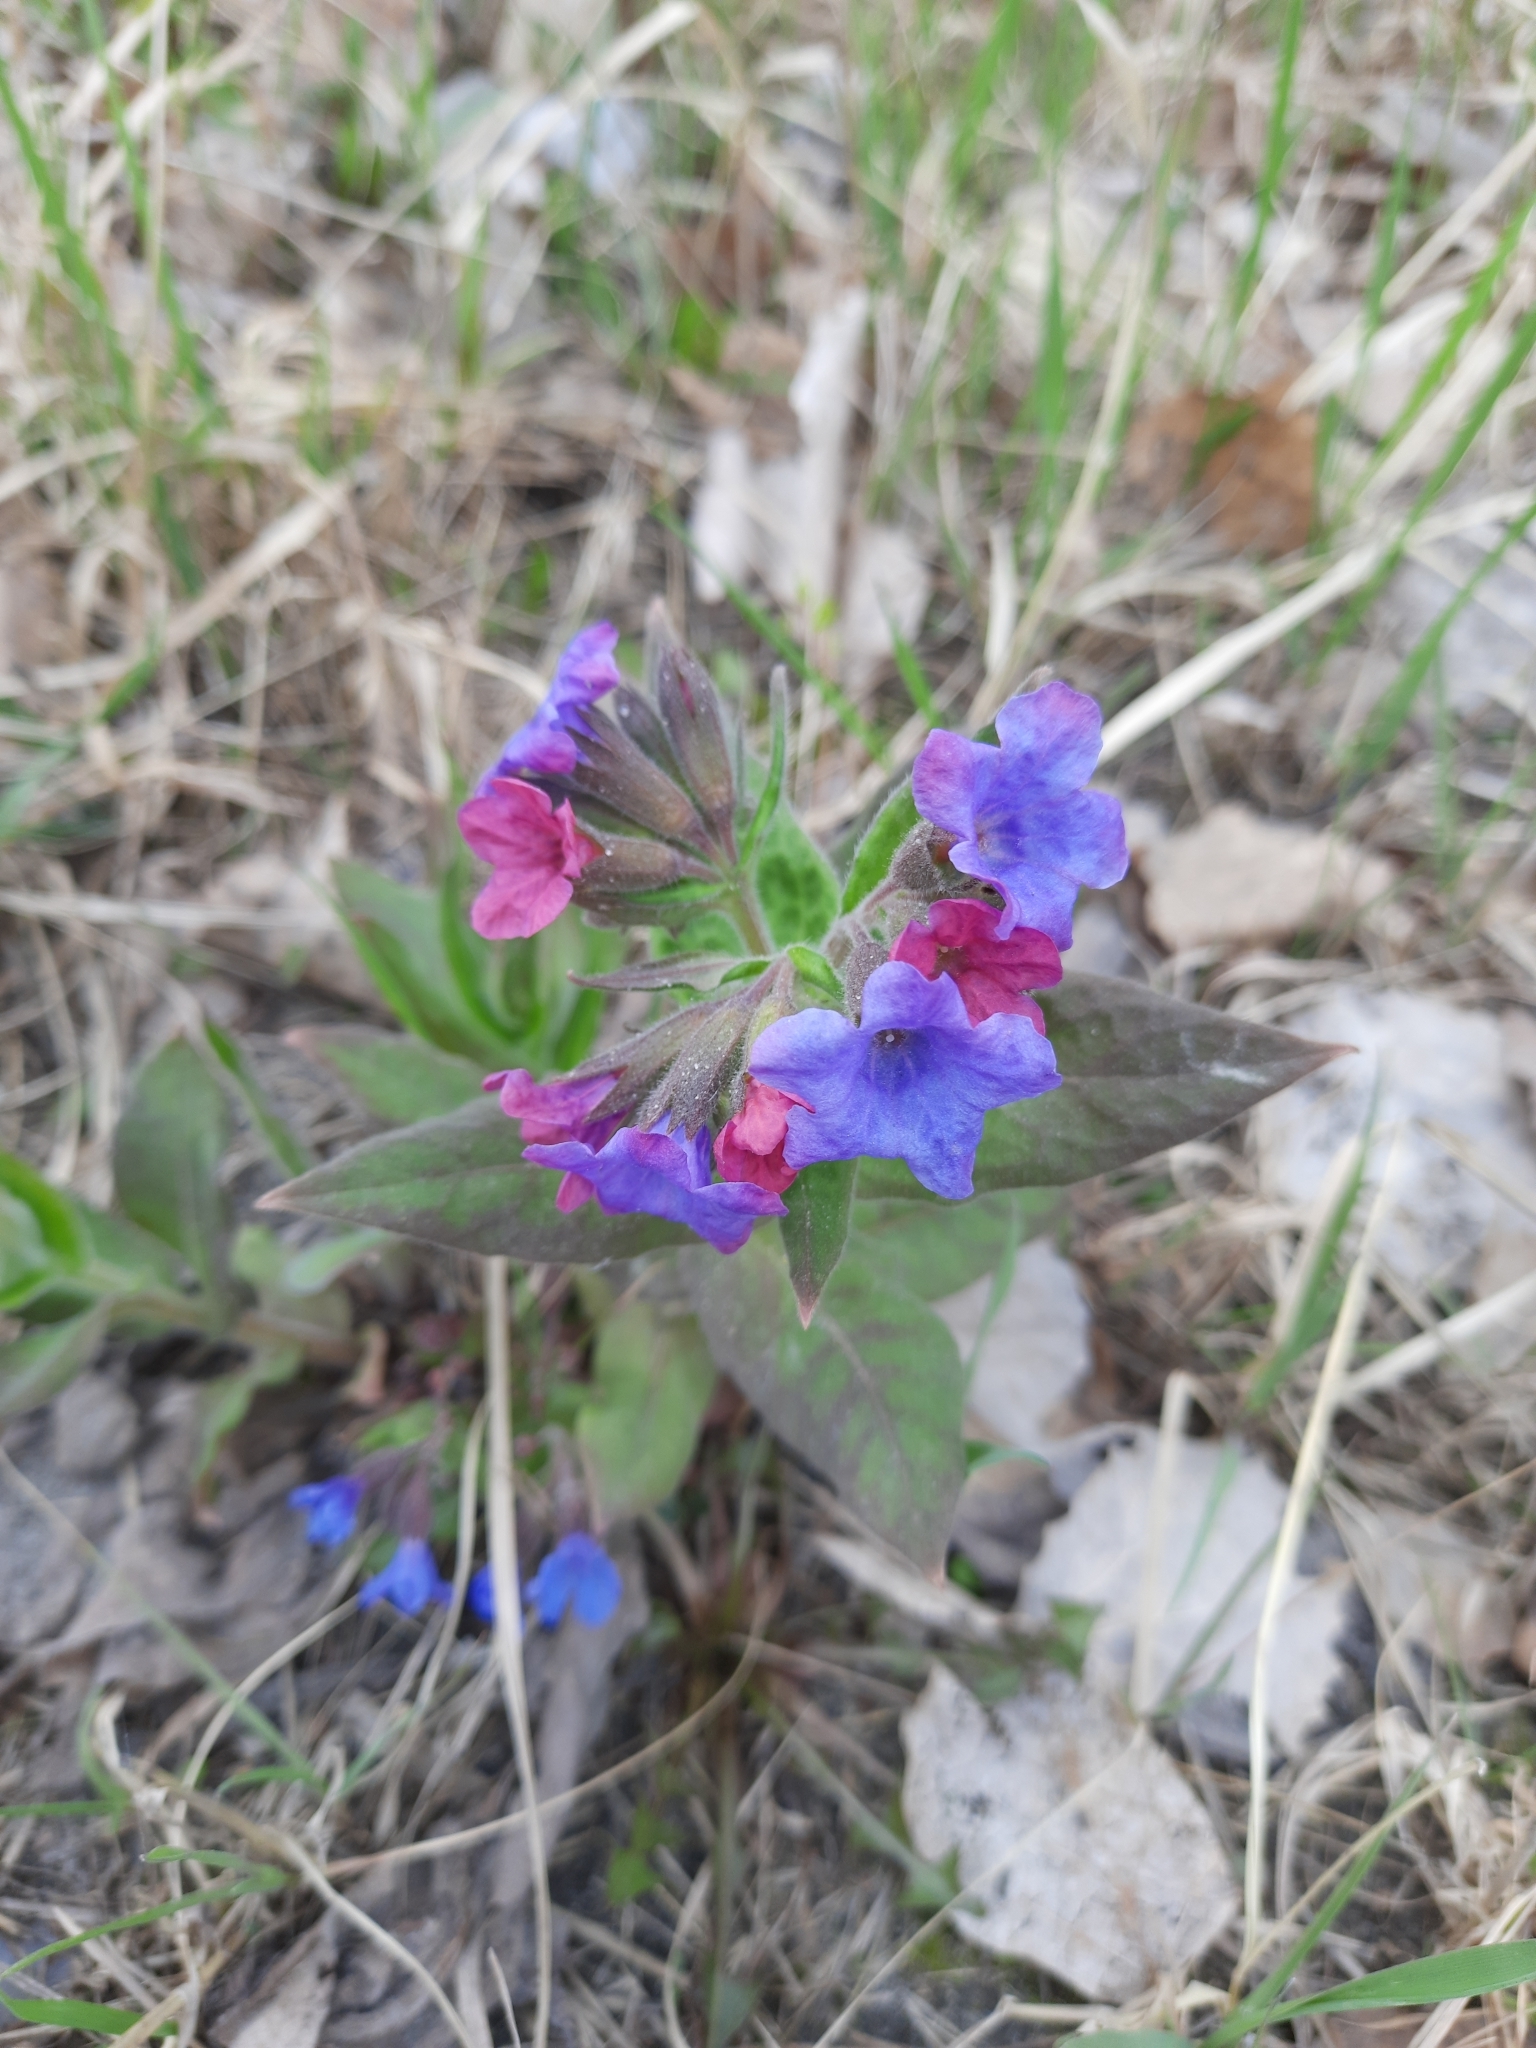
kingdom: Plantae
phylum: Tracheophyta
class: Magnoliopsida
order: Boraginales
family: Boraginaceae
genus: Pulmonaria
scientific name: Pulmonaria mollis
